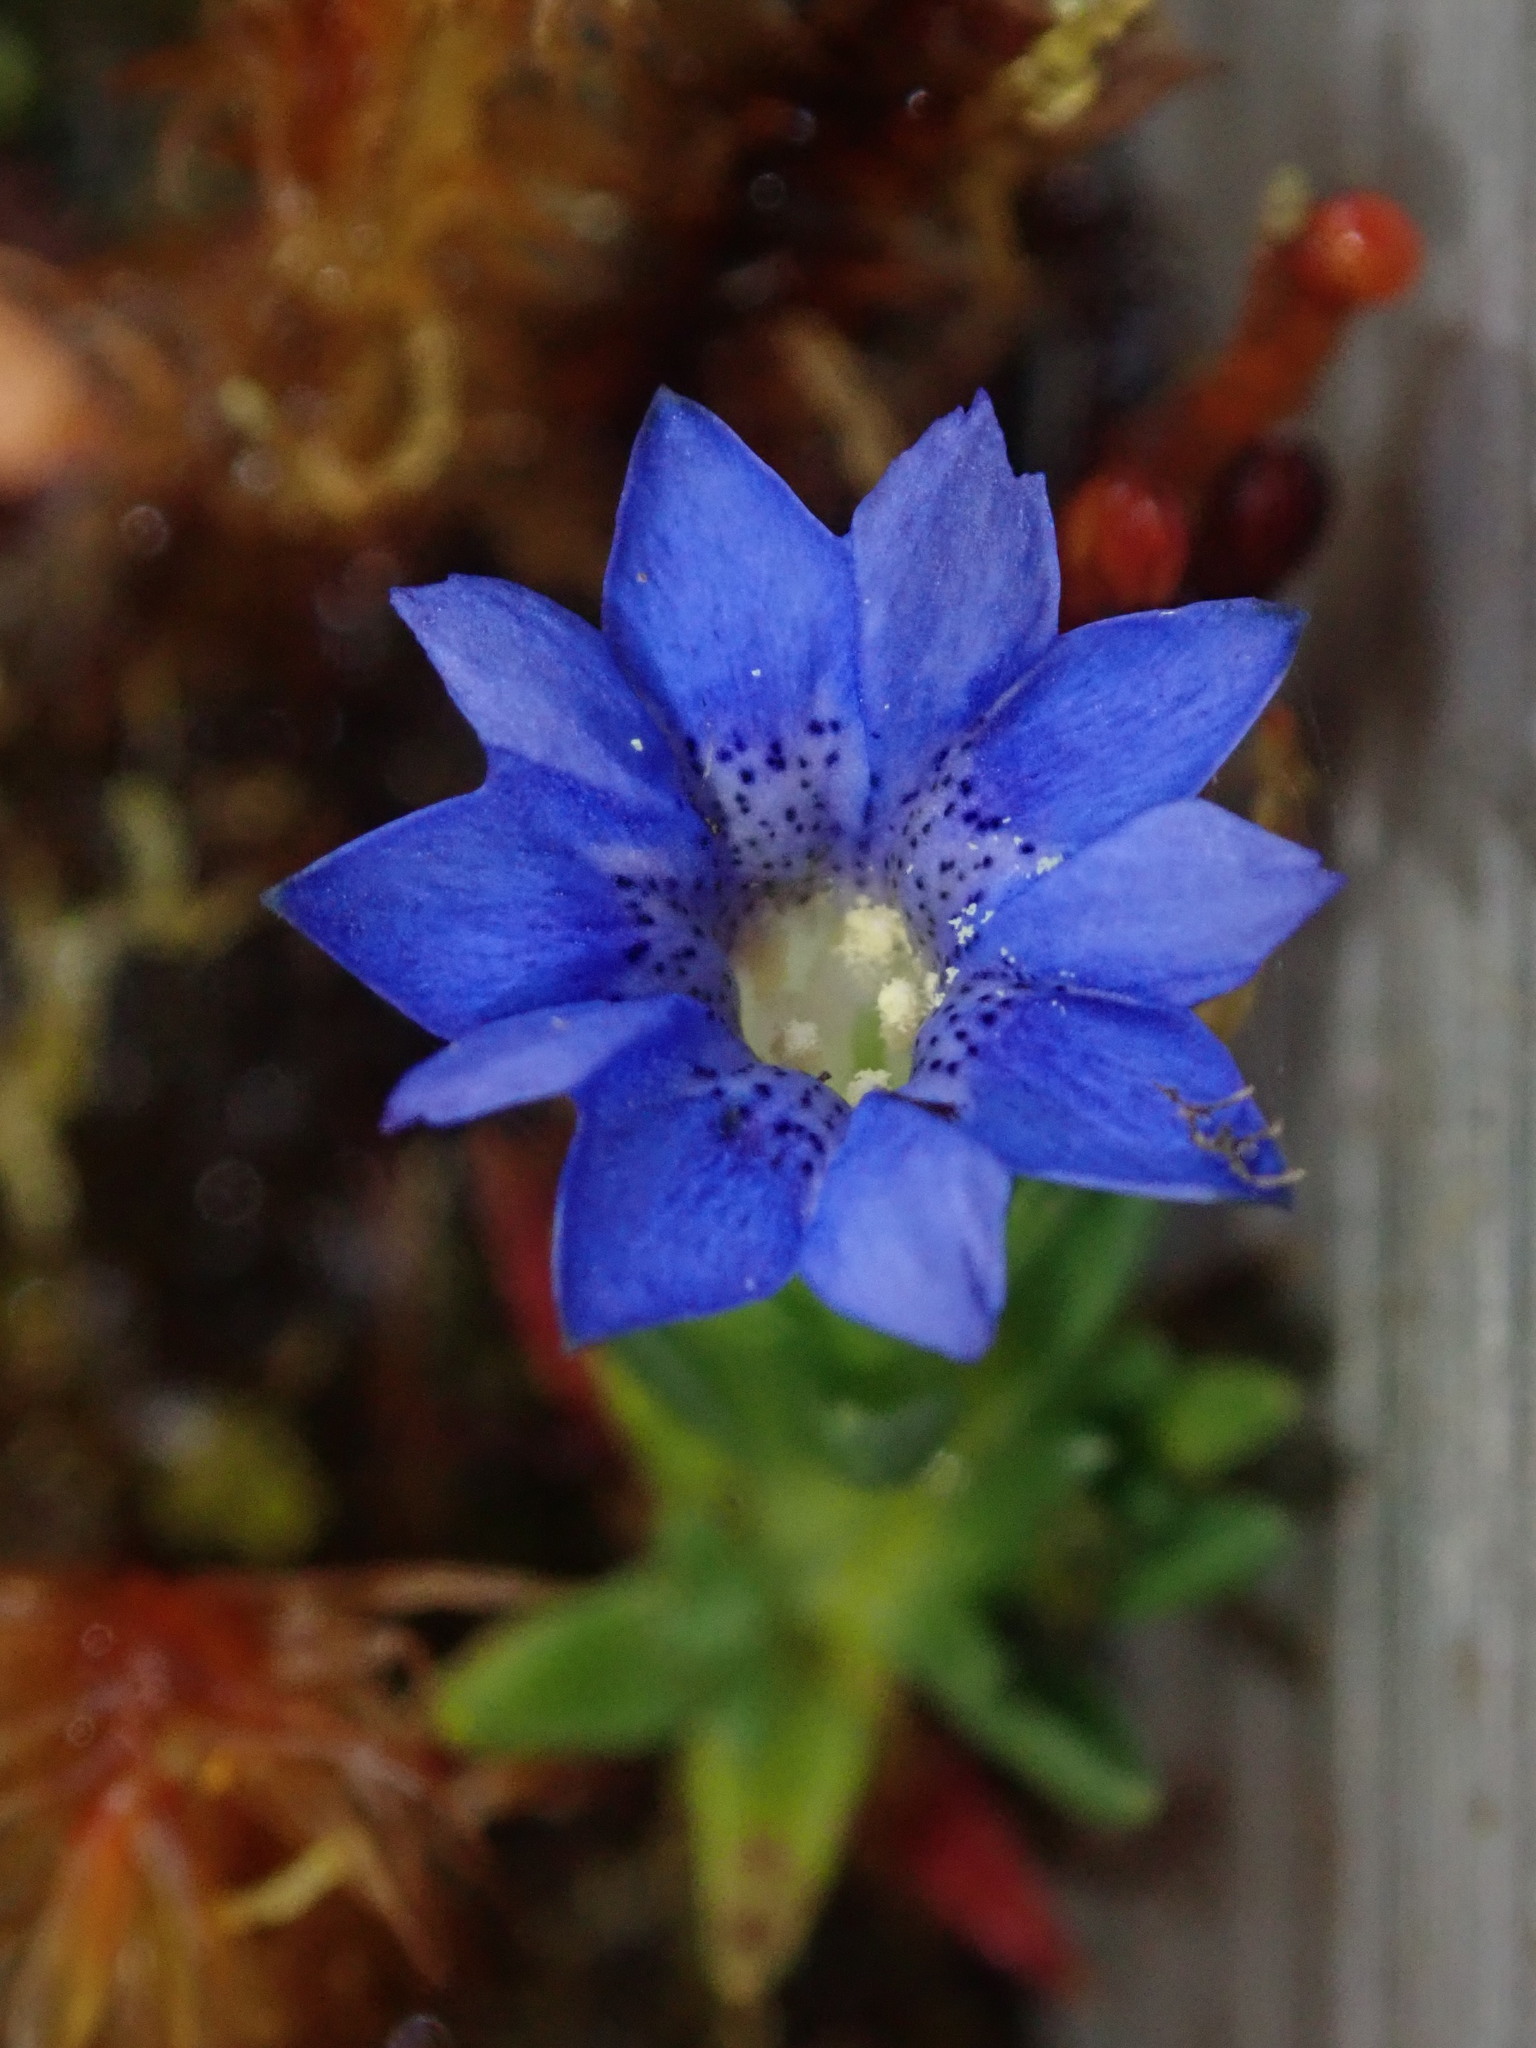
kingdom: Plantae
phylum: Tracheophyta
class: Magnoliopsida
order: Gentianales
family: Gentianaceae
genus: Gentiana
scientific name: Gentiana sedifolia
